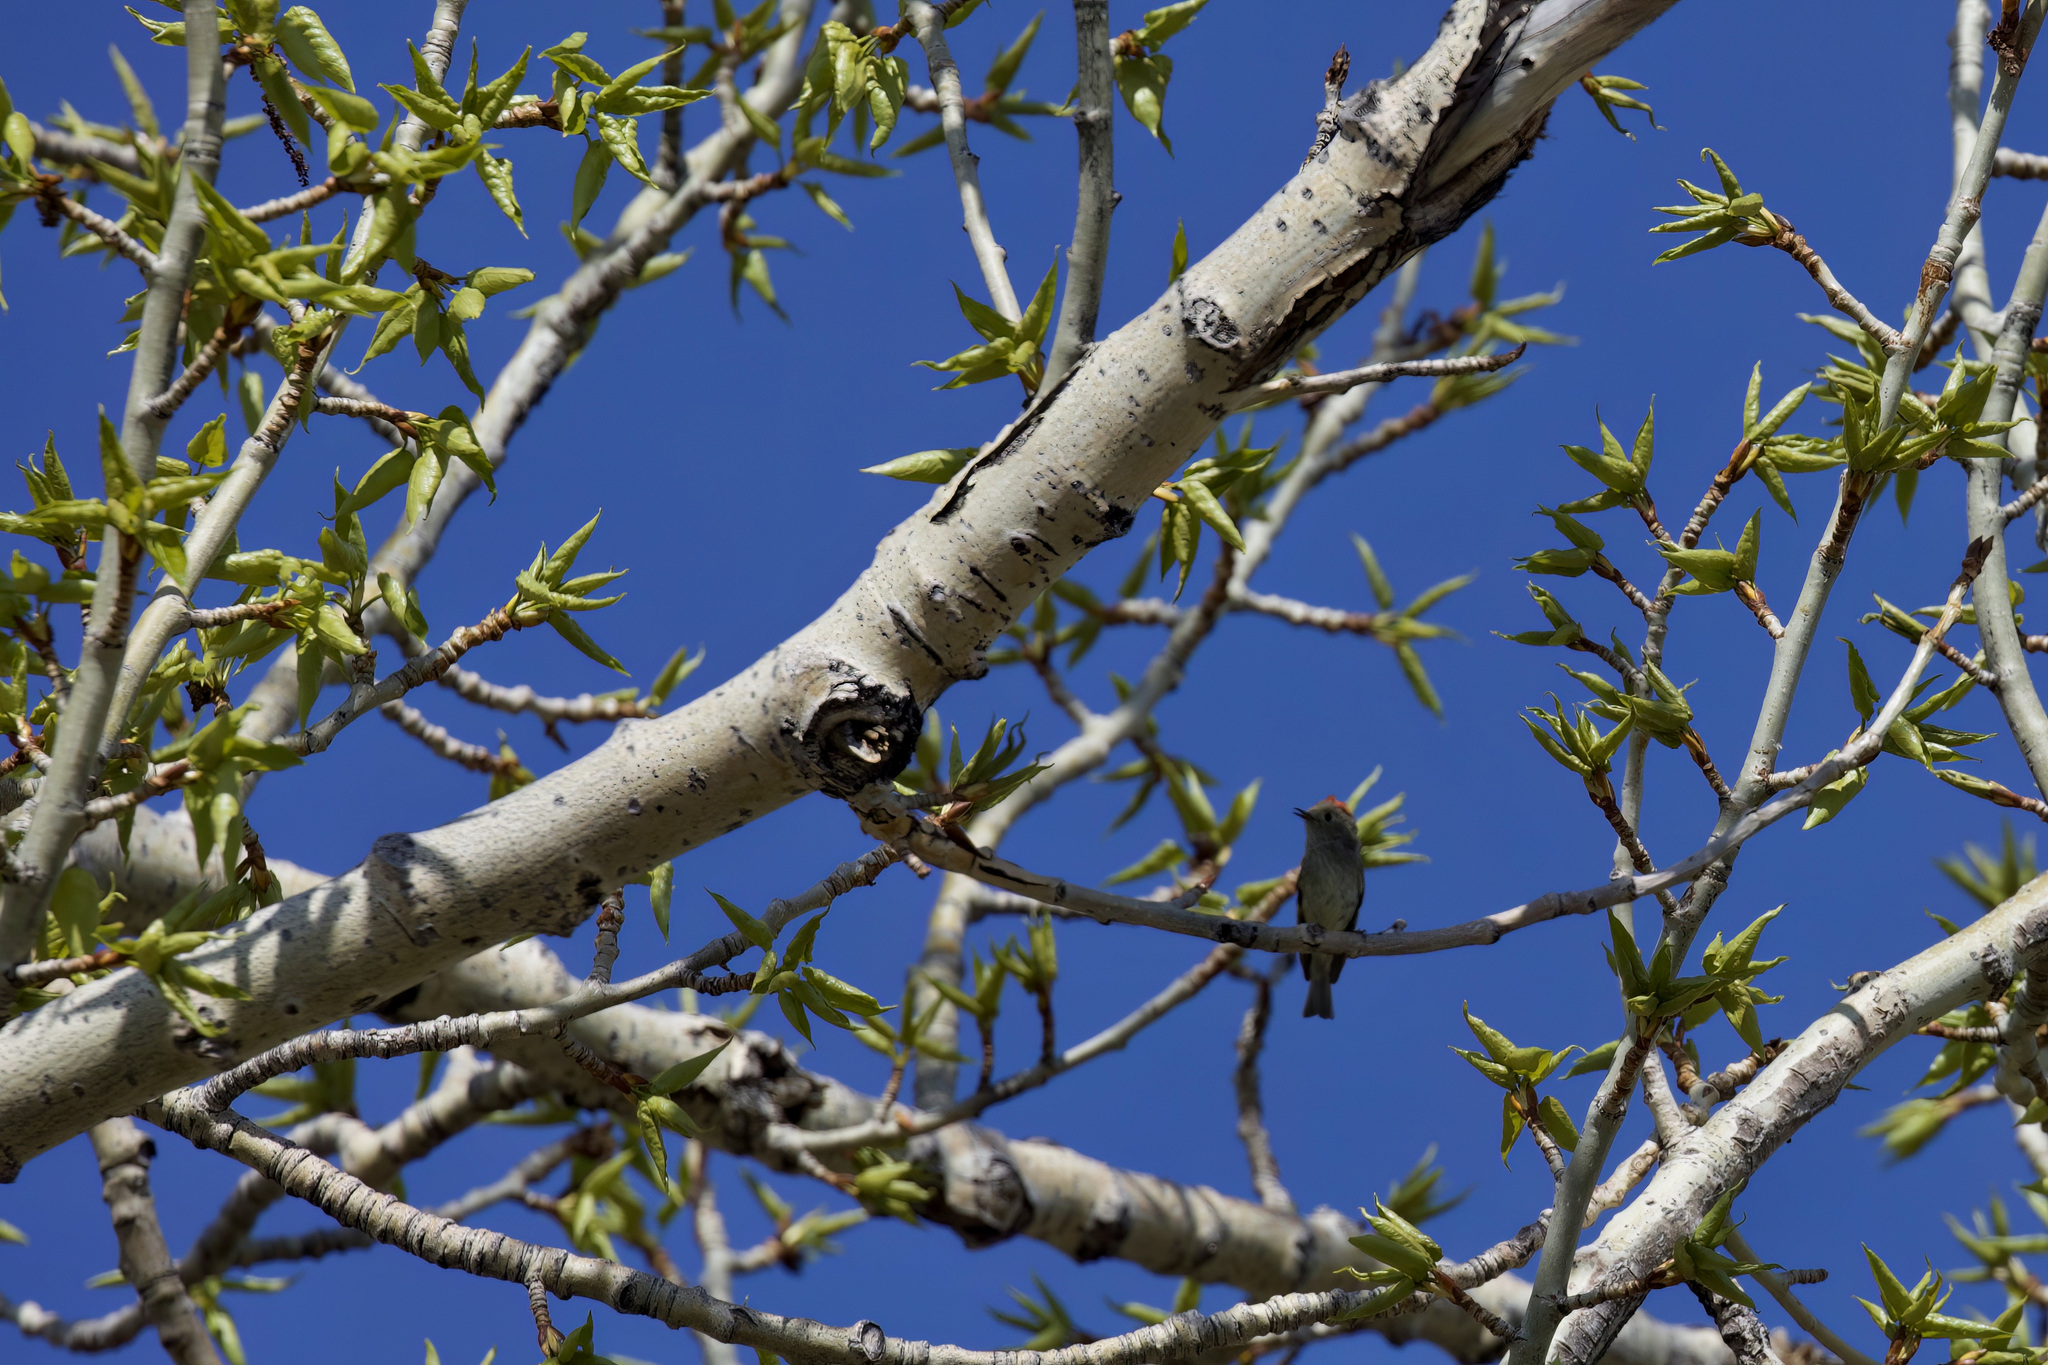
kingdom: Animalia
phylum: Chordata
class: Aves
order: Passeriformes
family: Regulidae
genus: Regulus
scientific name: Regulus calendula
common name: Ruby-crowned kinglet
